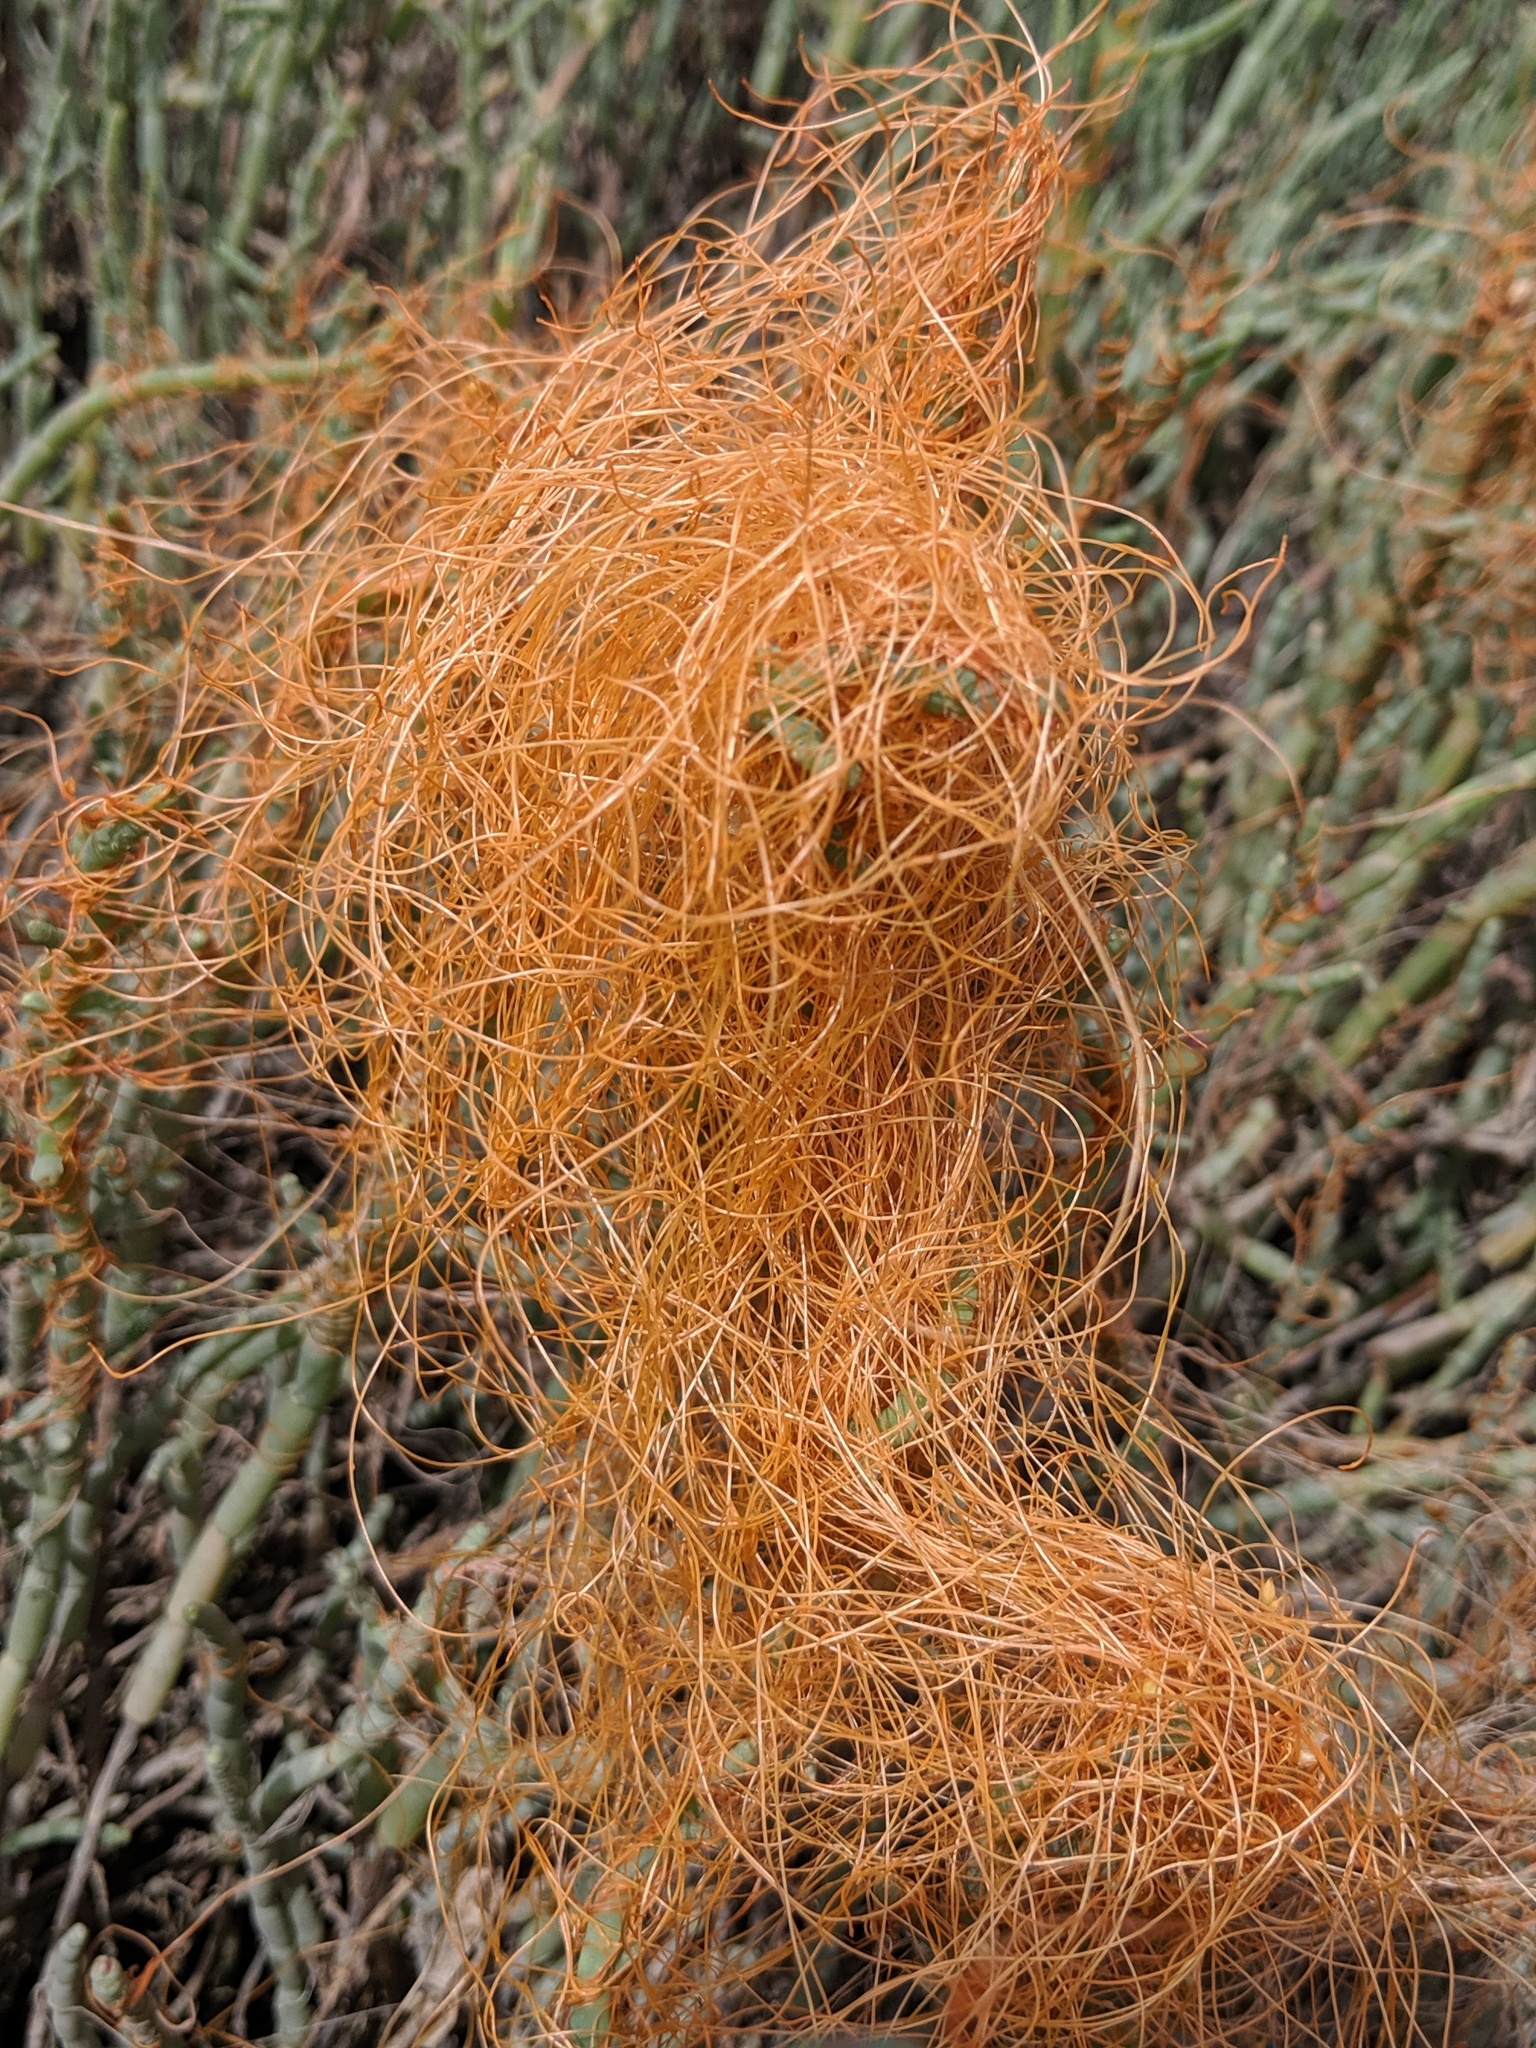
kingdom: Plantae
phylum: Tracheophyta
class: Magnoliopsida
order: Solanales
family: Convolvulaceae
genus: Cuscuta
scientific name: Cuscuta pacifica
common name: Large saltmarsh dodder
